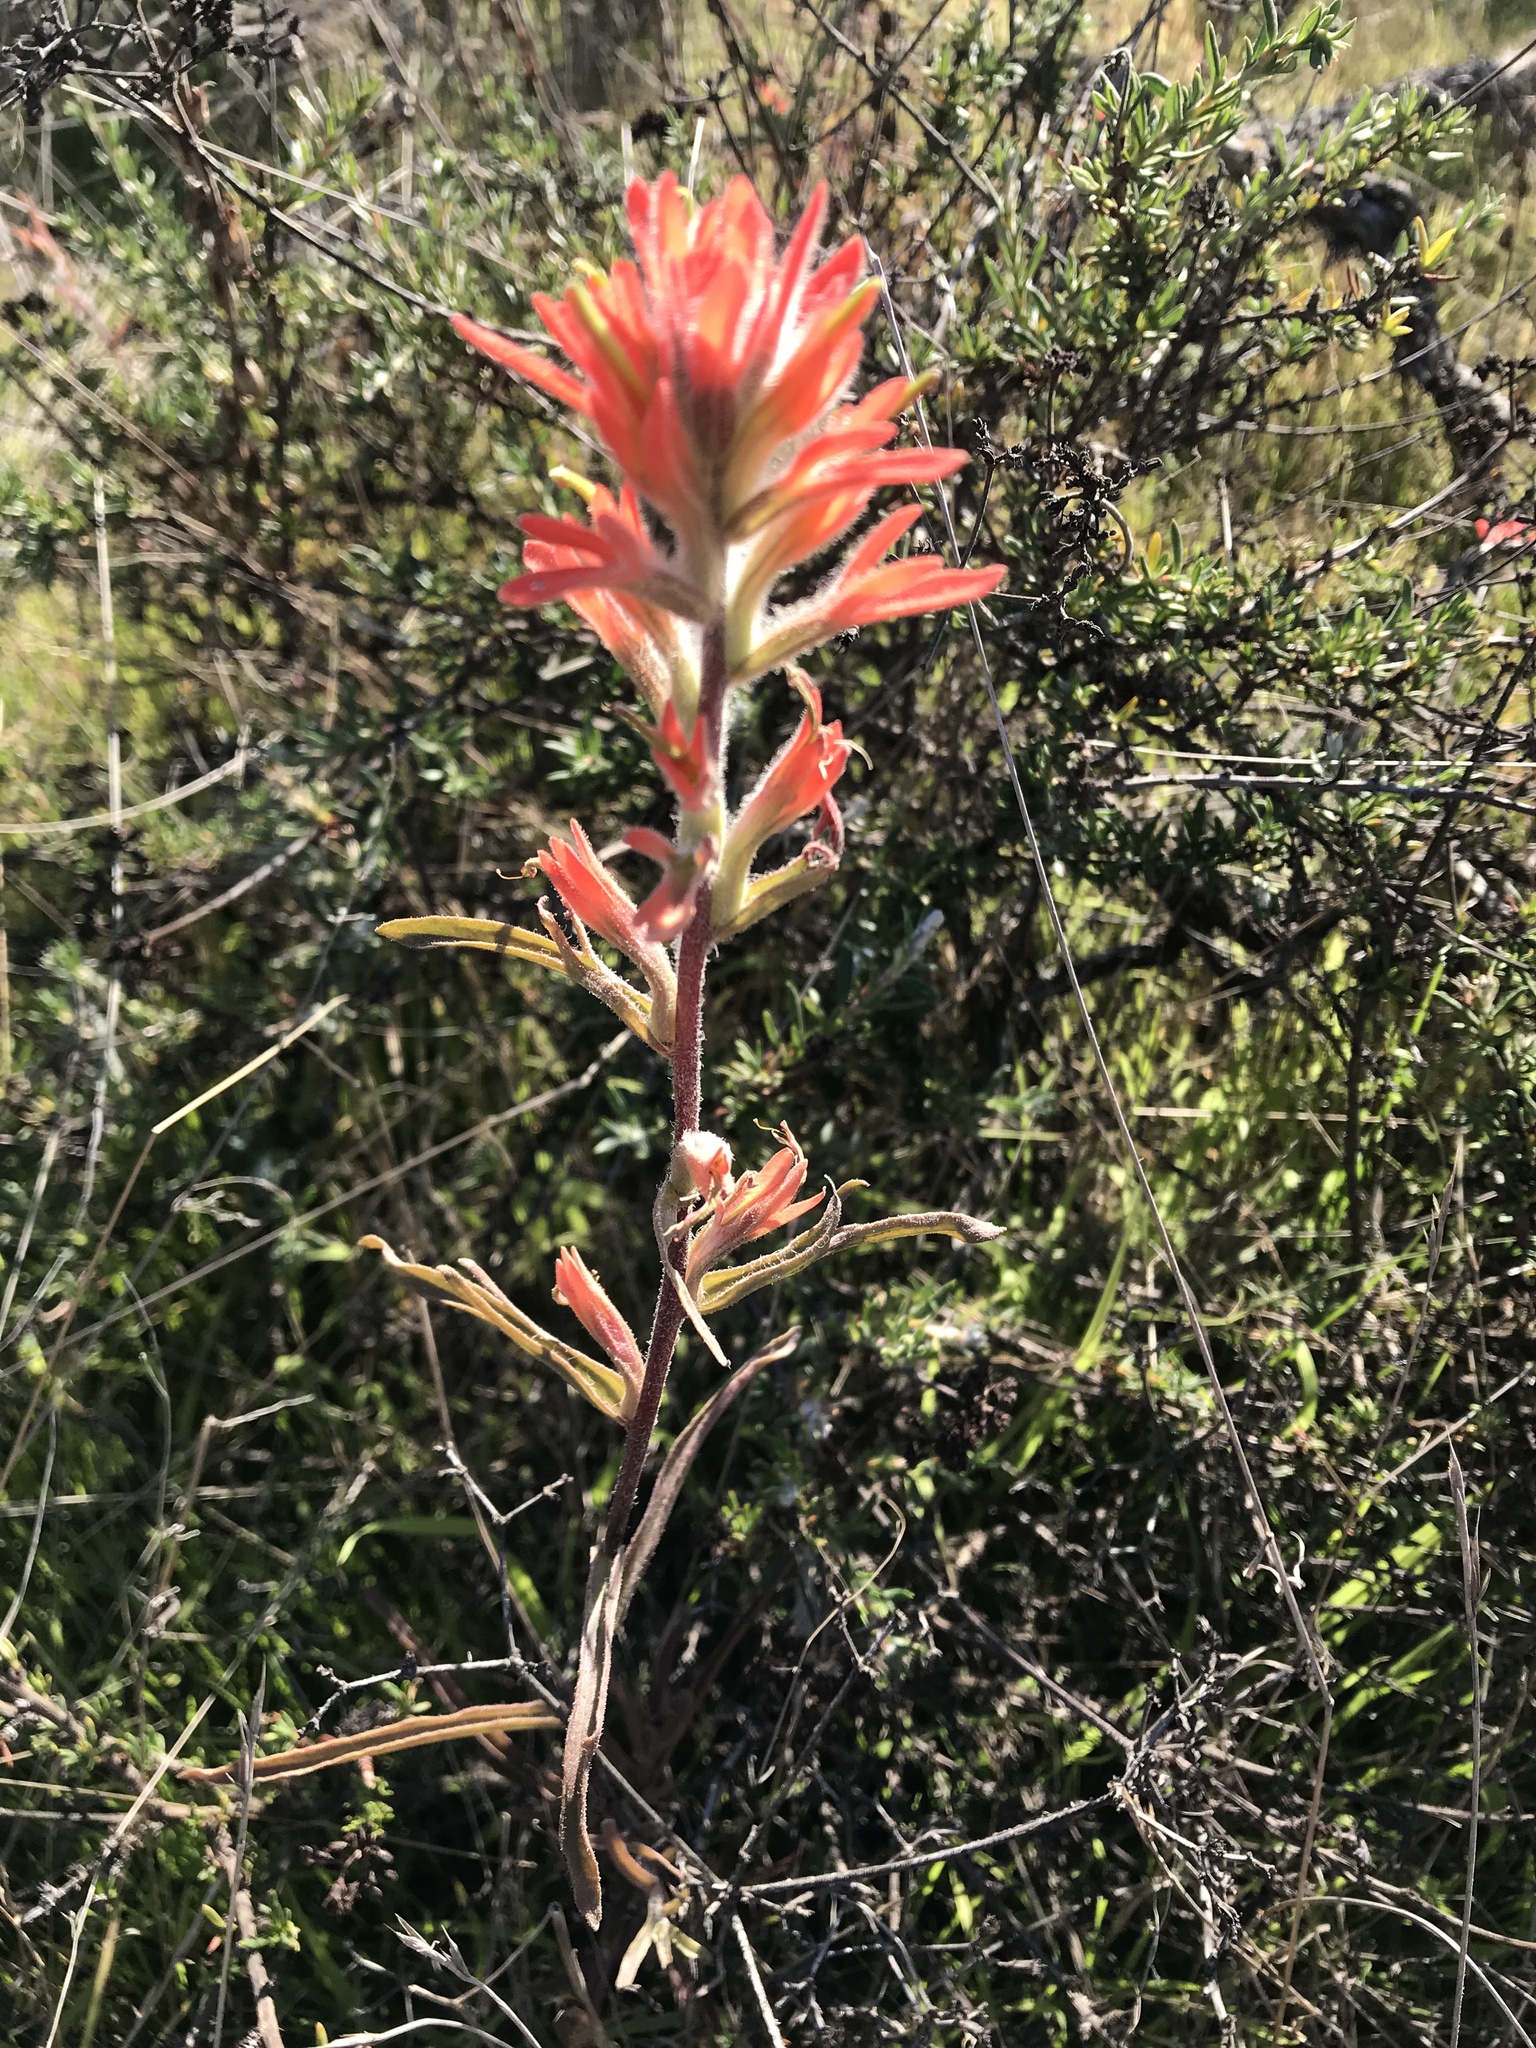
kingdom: Plantae
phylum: Tracheophyta
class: Magnoliopsida
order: Lamiales
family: Orobanchaceae
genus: Castilleja
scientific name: Castilleja affinis
